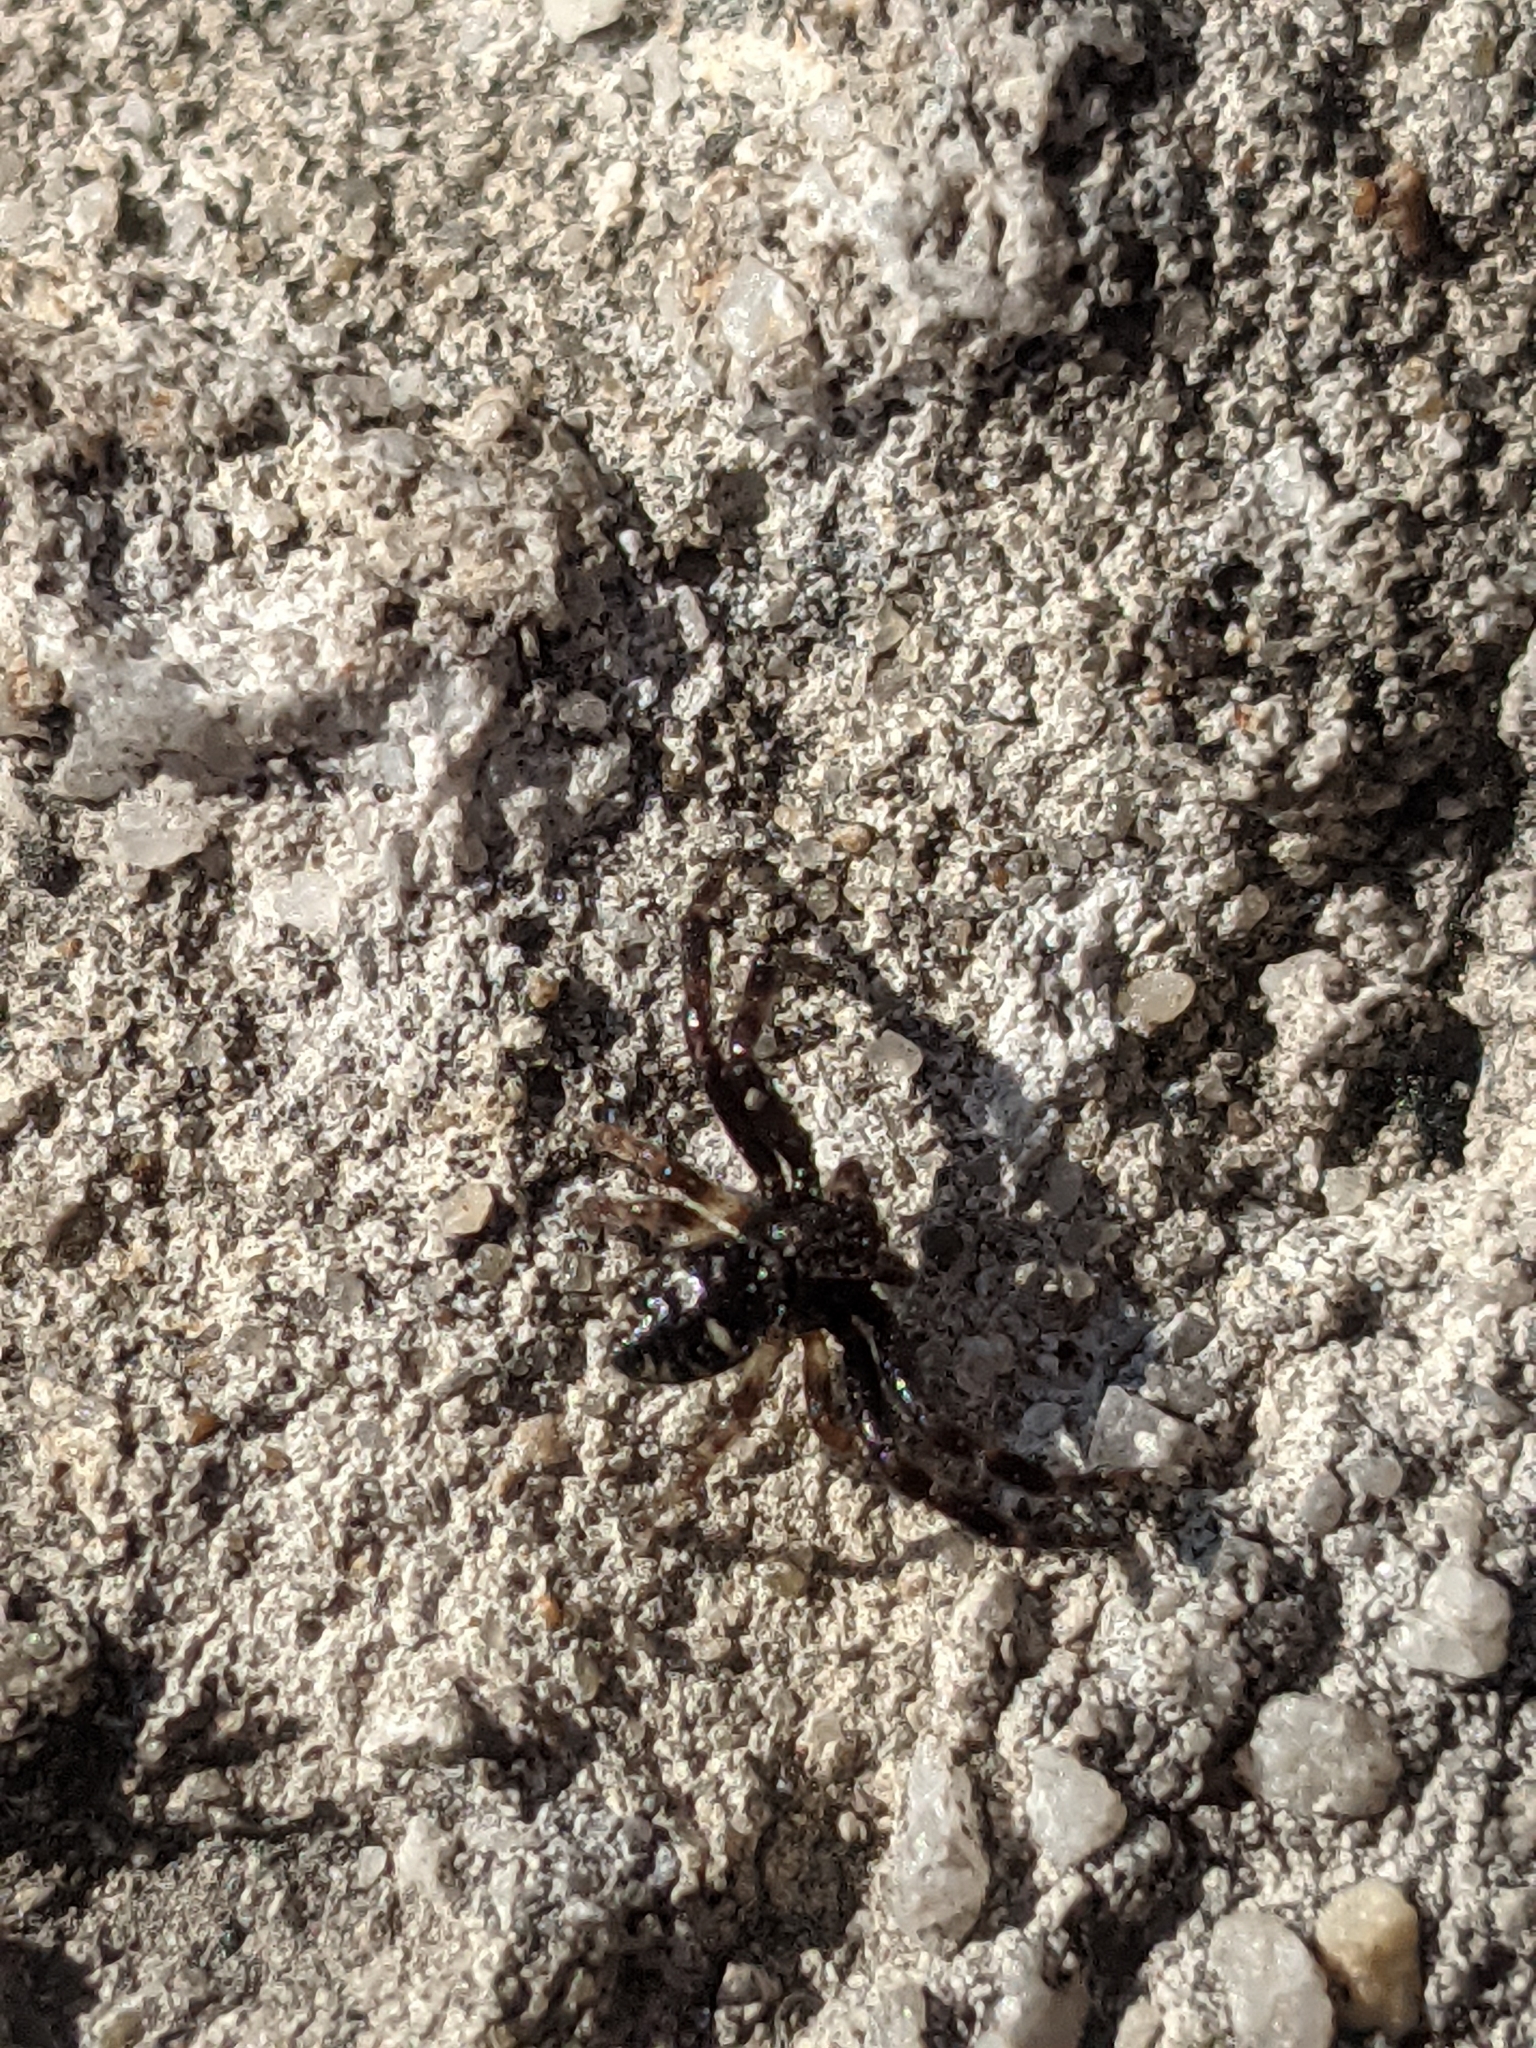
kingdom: Animalia
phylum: Arthropoda
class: Arachnida
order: Araneae
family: Thomisidae
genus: Synema
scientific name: Synema globosum
